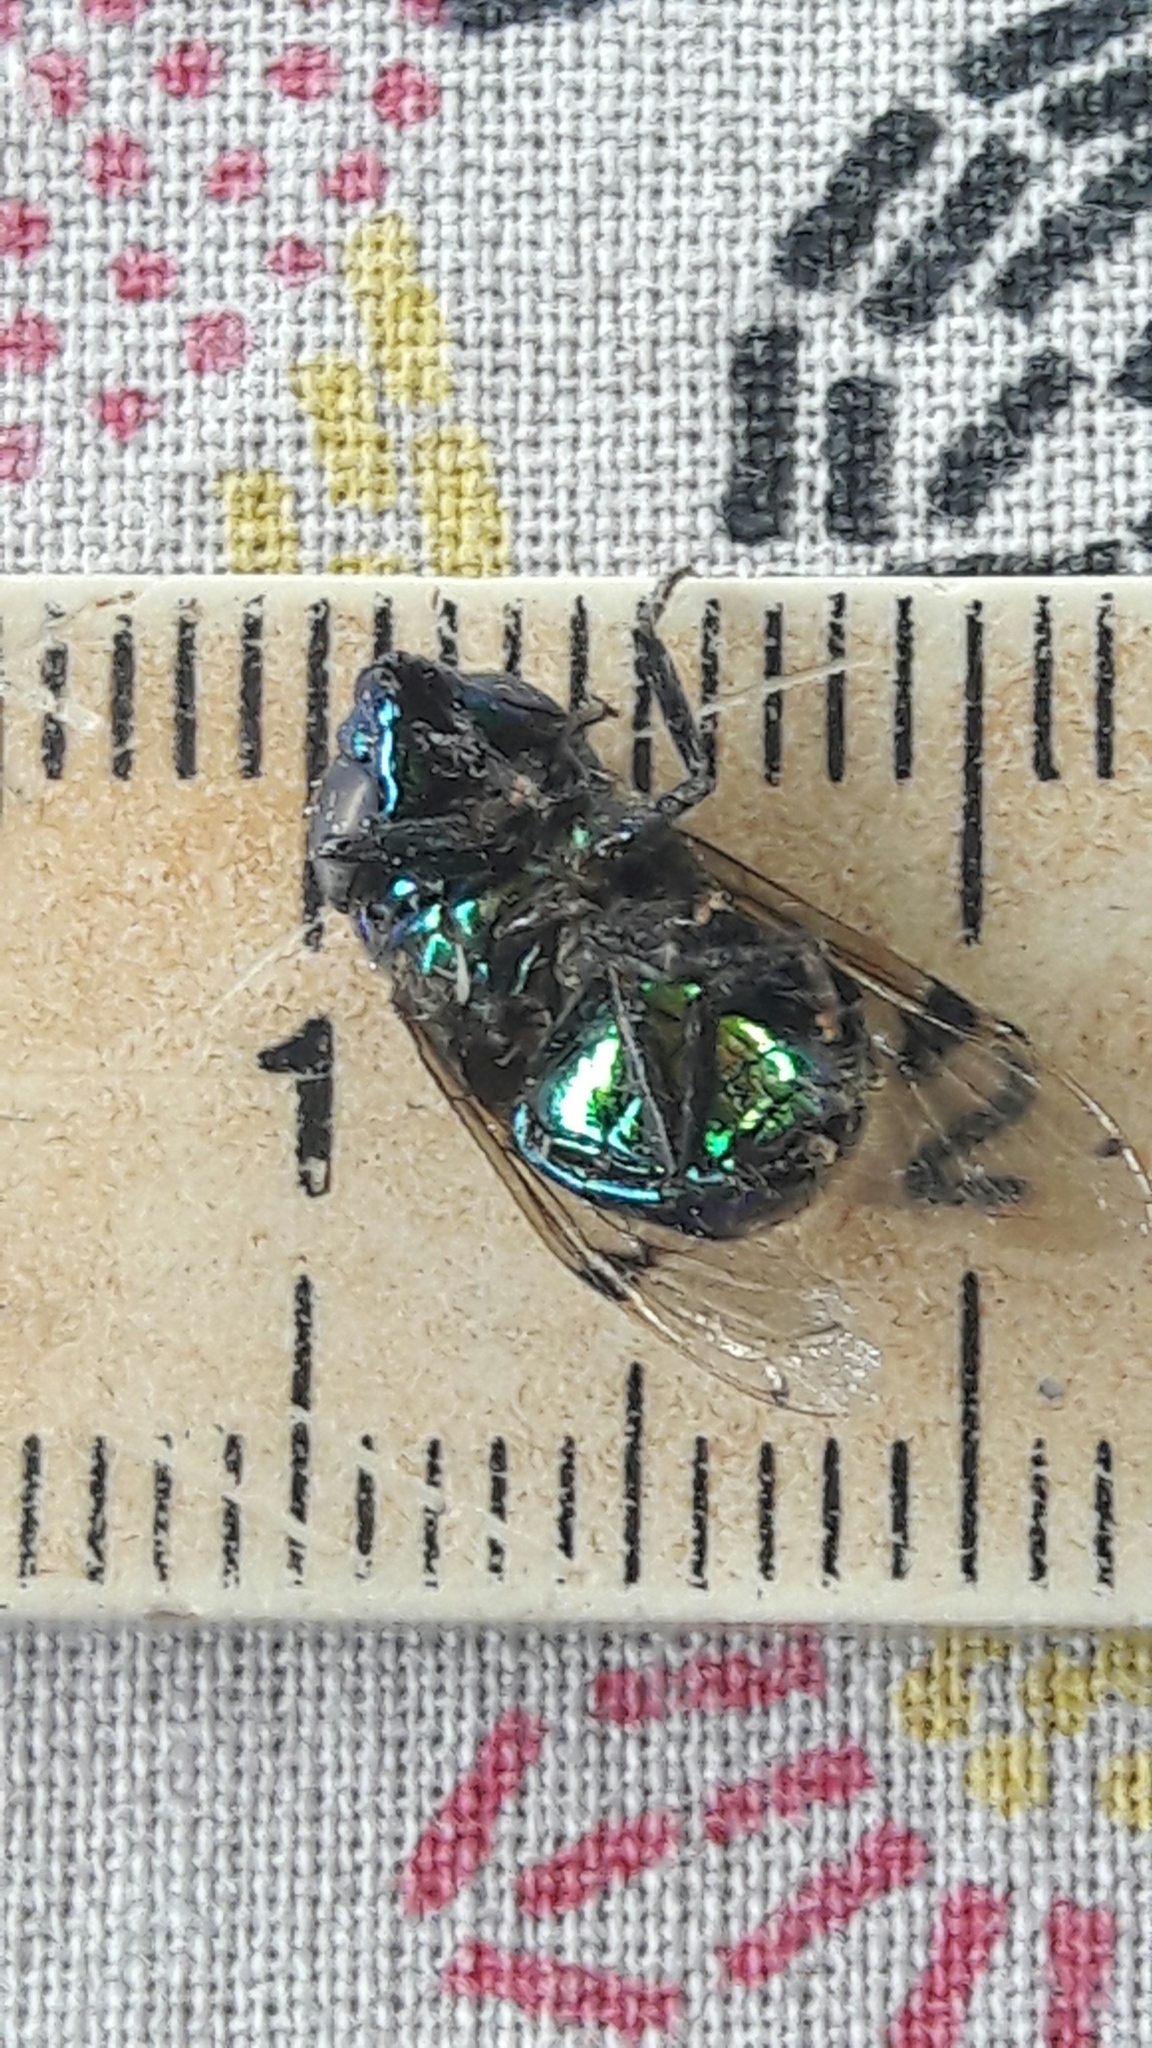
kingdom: Animalia
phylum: Arthropoda
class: Insecta
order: Diptera
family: Syrphidae
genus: Ornidia
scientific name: Ornidia obesa
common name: Syrphid fly
